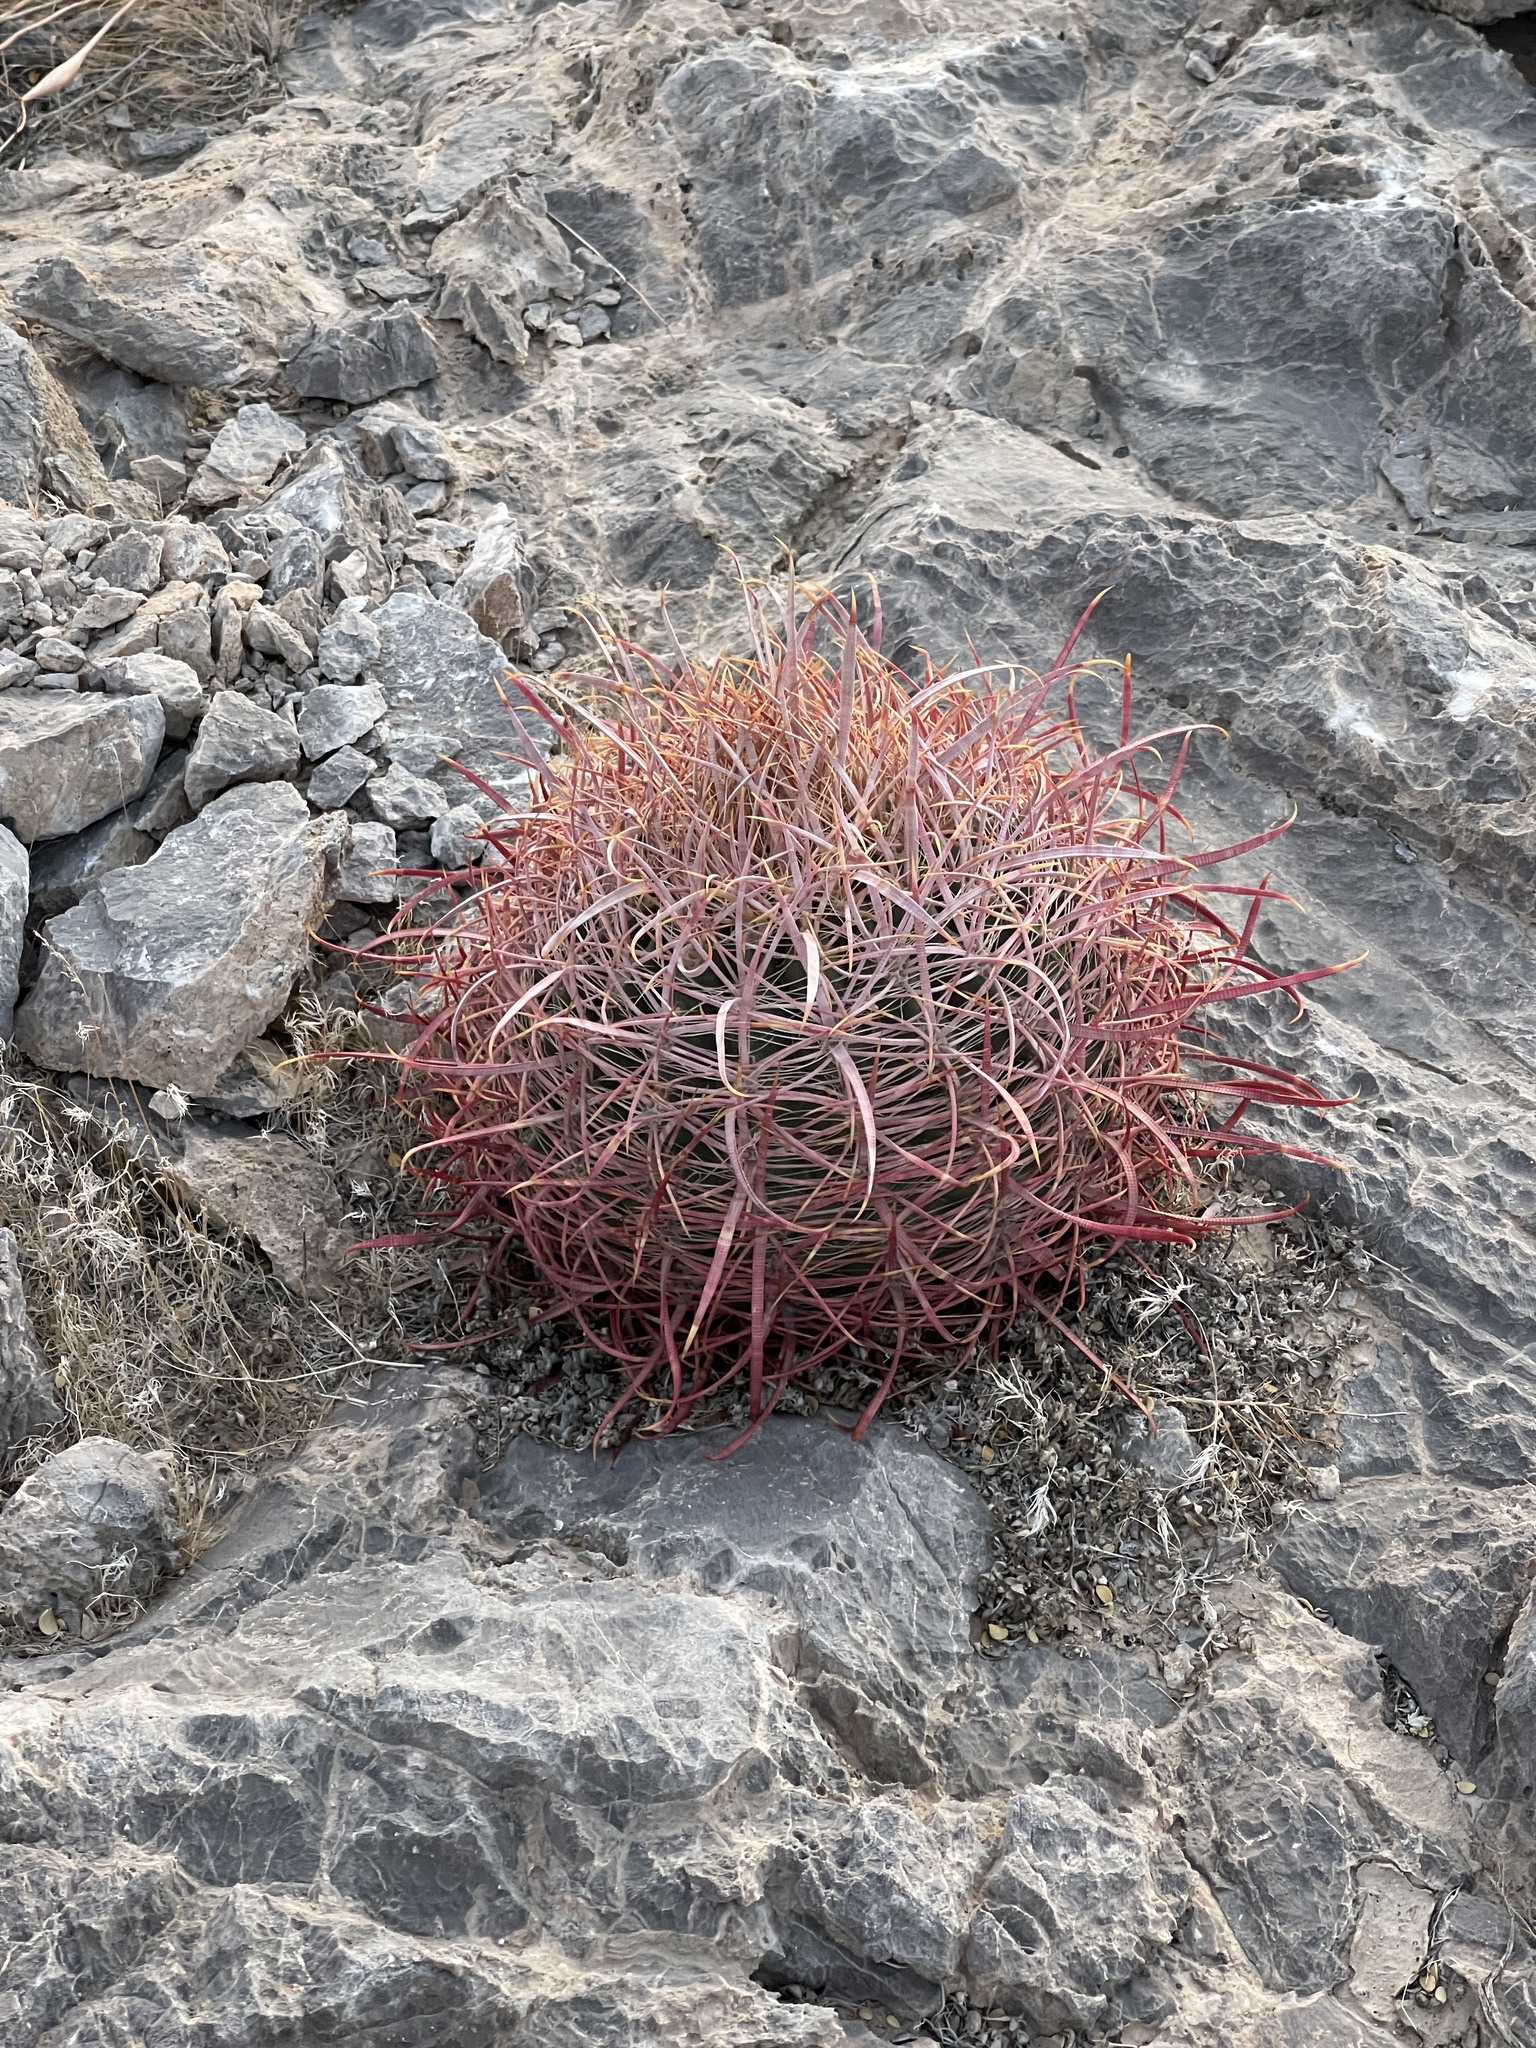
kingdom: Plantae
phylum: Tracheophyta
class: Magnoliopsida
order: Caryophyllales
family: Cactaceae
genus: Ferocactus
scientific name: Ferocactus cylindraceus
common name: California barrel cactus
